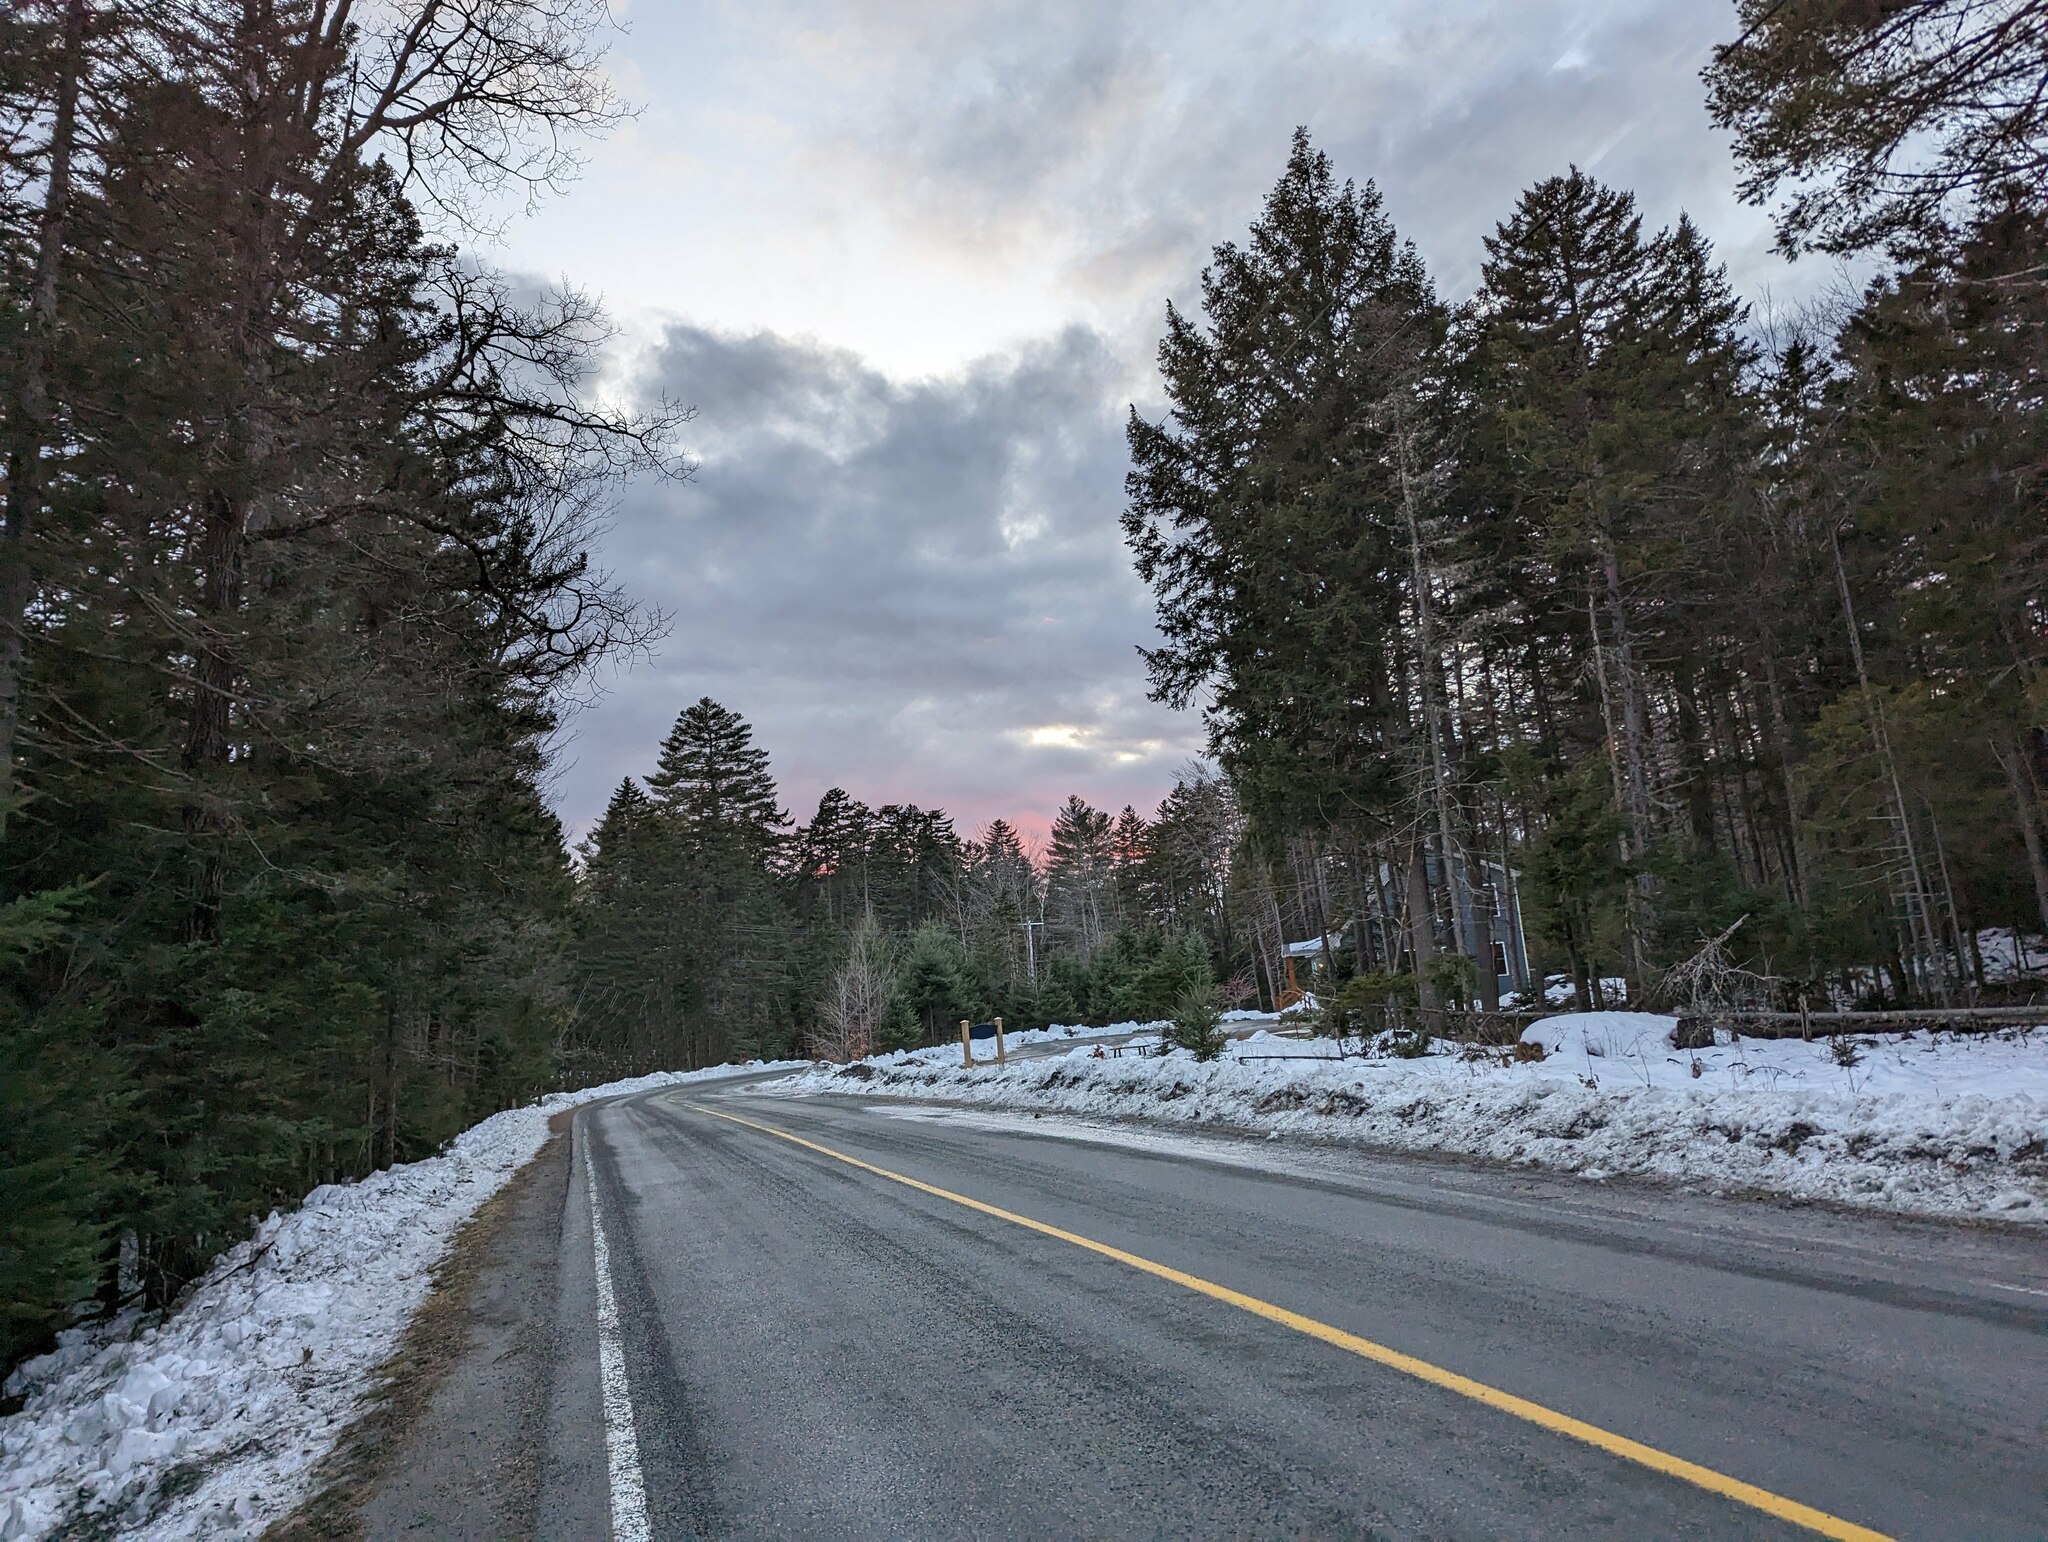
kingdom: Plantae
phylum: Tracheophyta
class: Pinopsida
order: Pinales
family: Pinaceae
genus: Pinus
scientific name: Pinus strobus
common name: Weymouth pine
